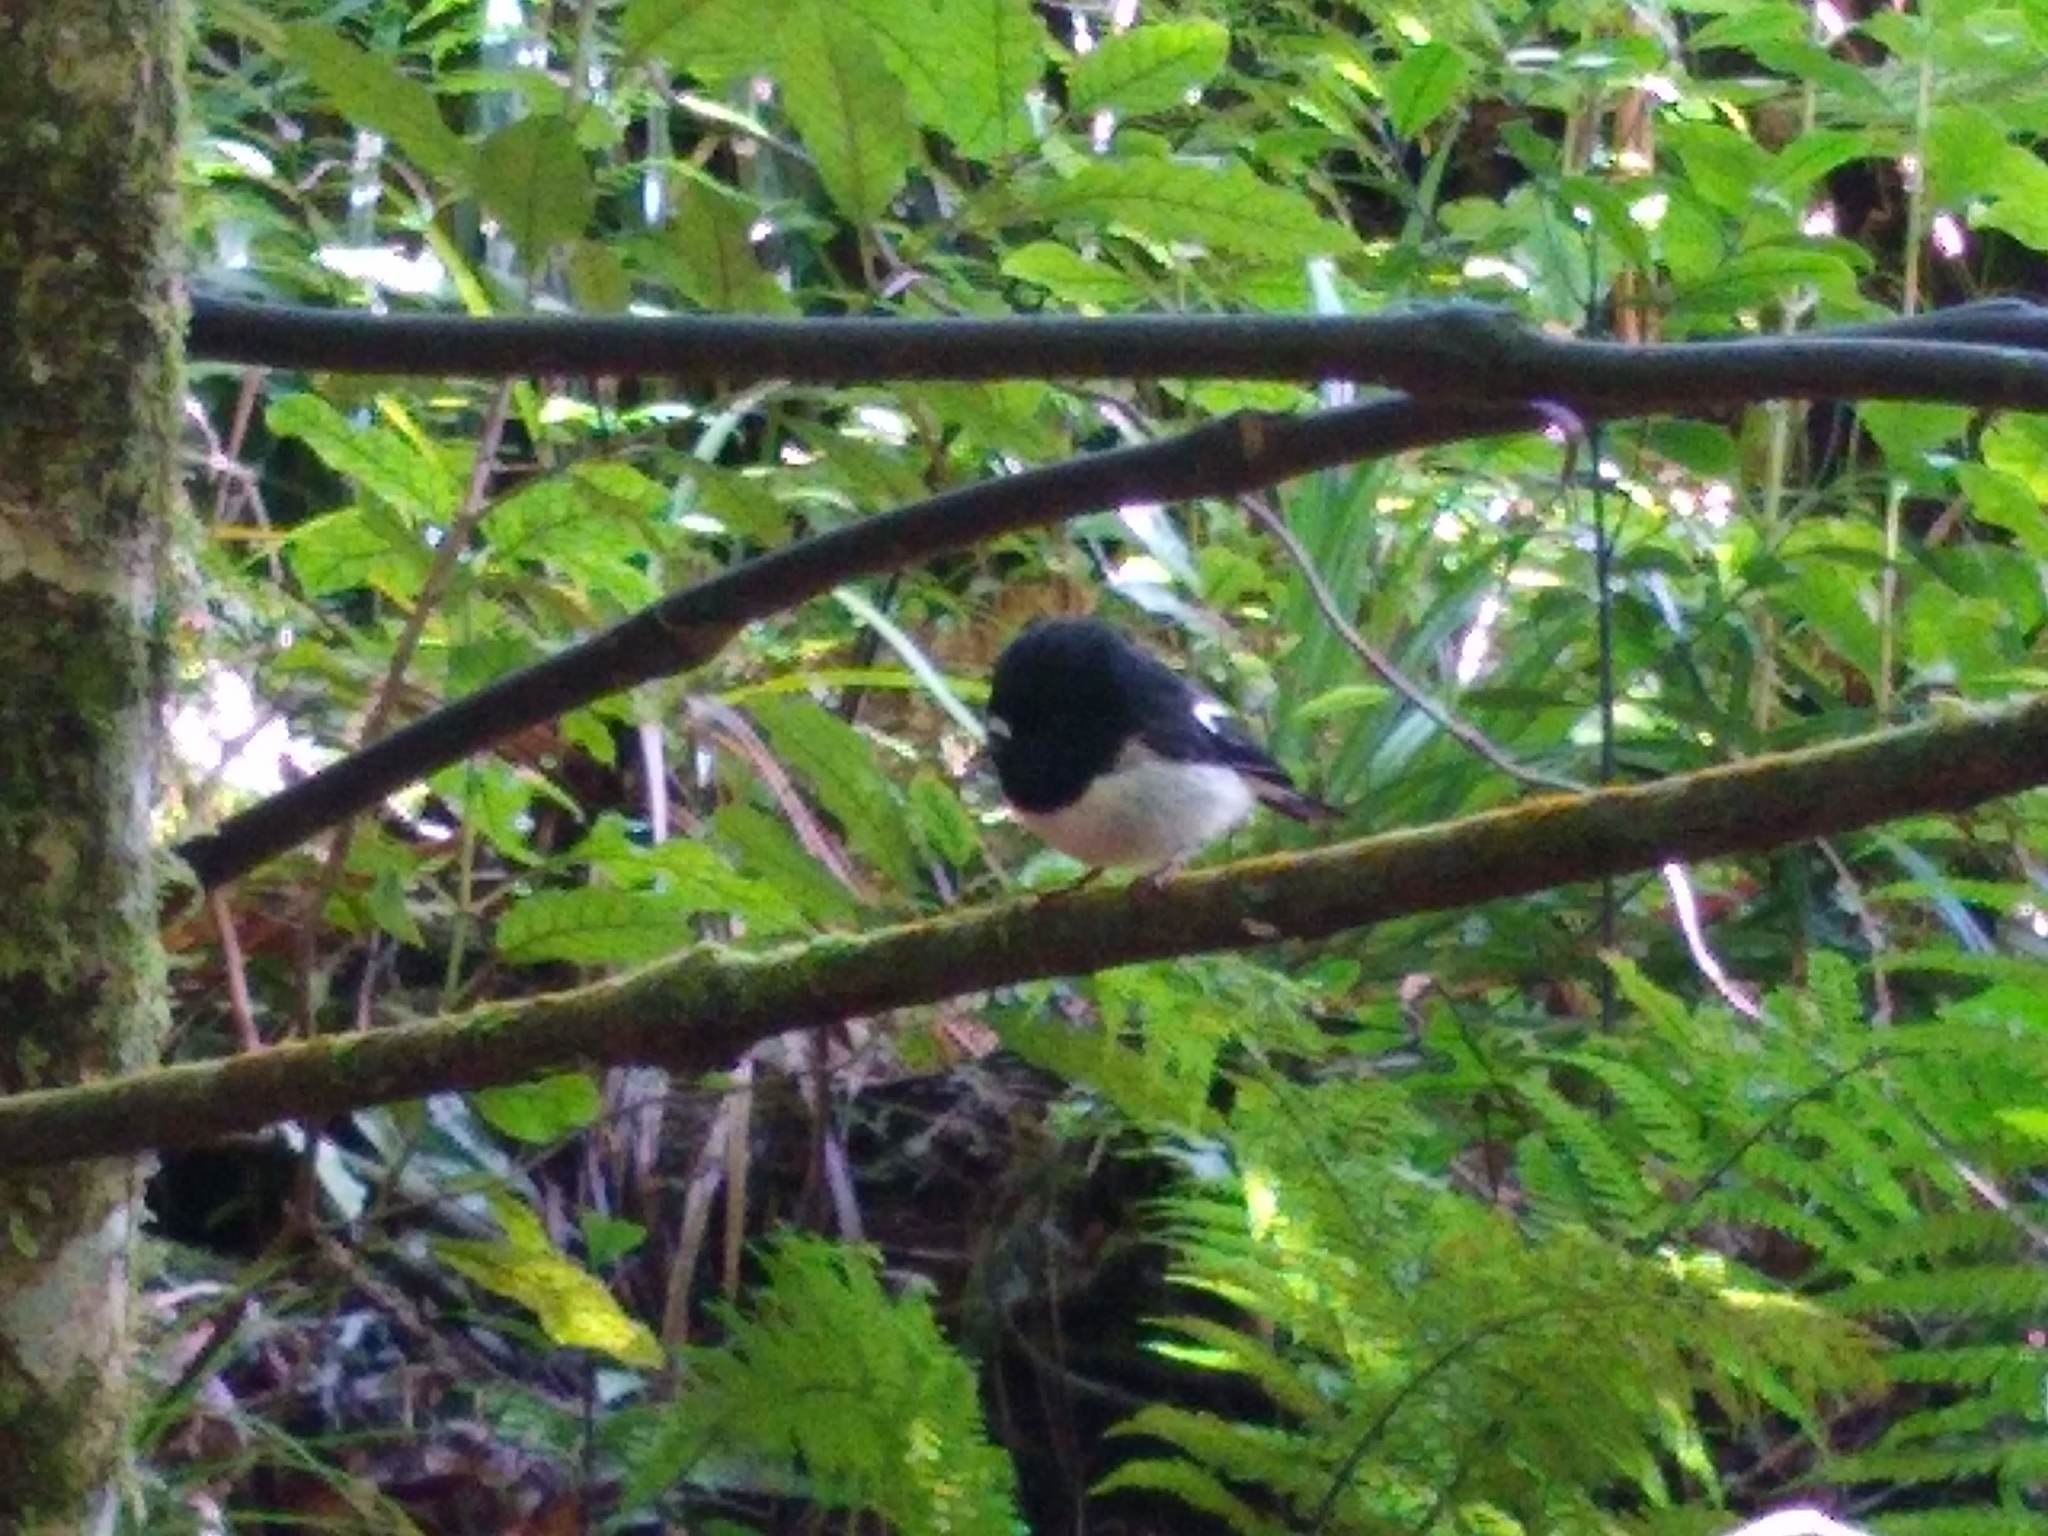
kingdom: Animalia
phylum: Chordata
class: Aves
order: Passeriformes
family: Petroicidae
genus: Petroica
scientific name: Petroica macrocephala
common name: Tomtit
